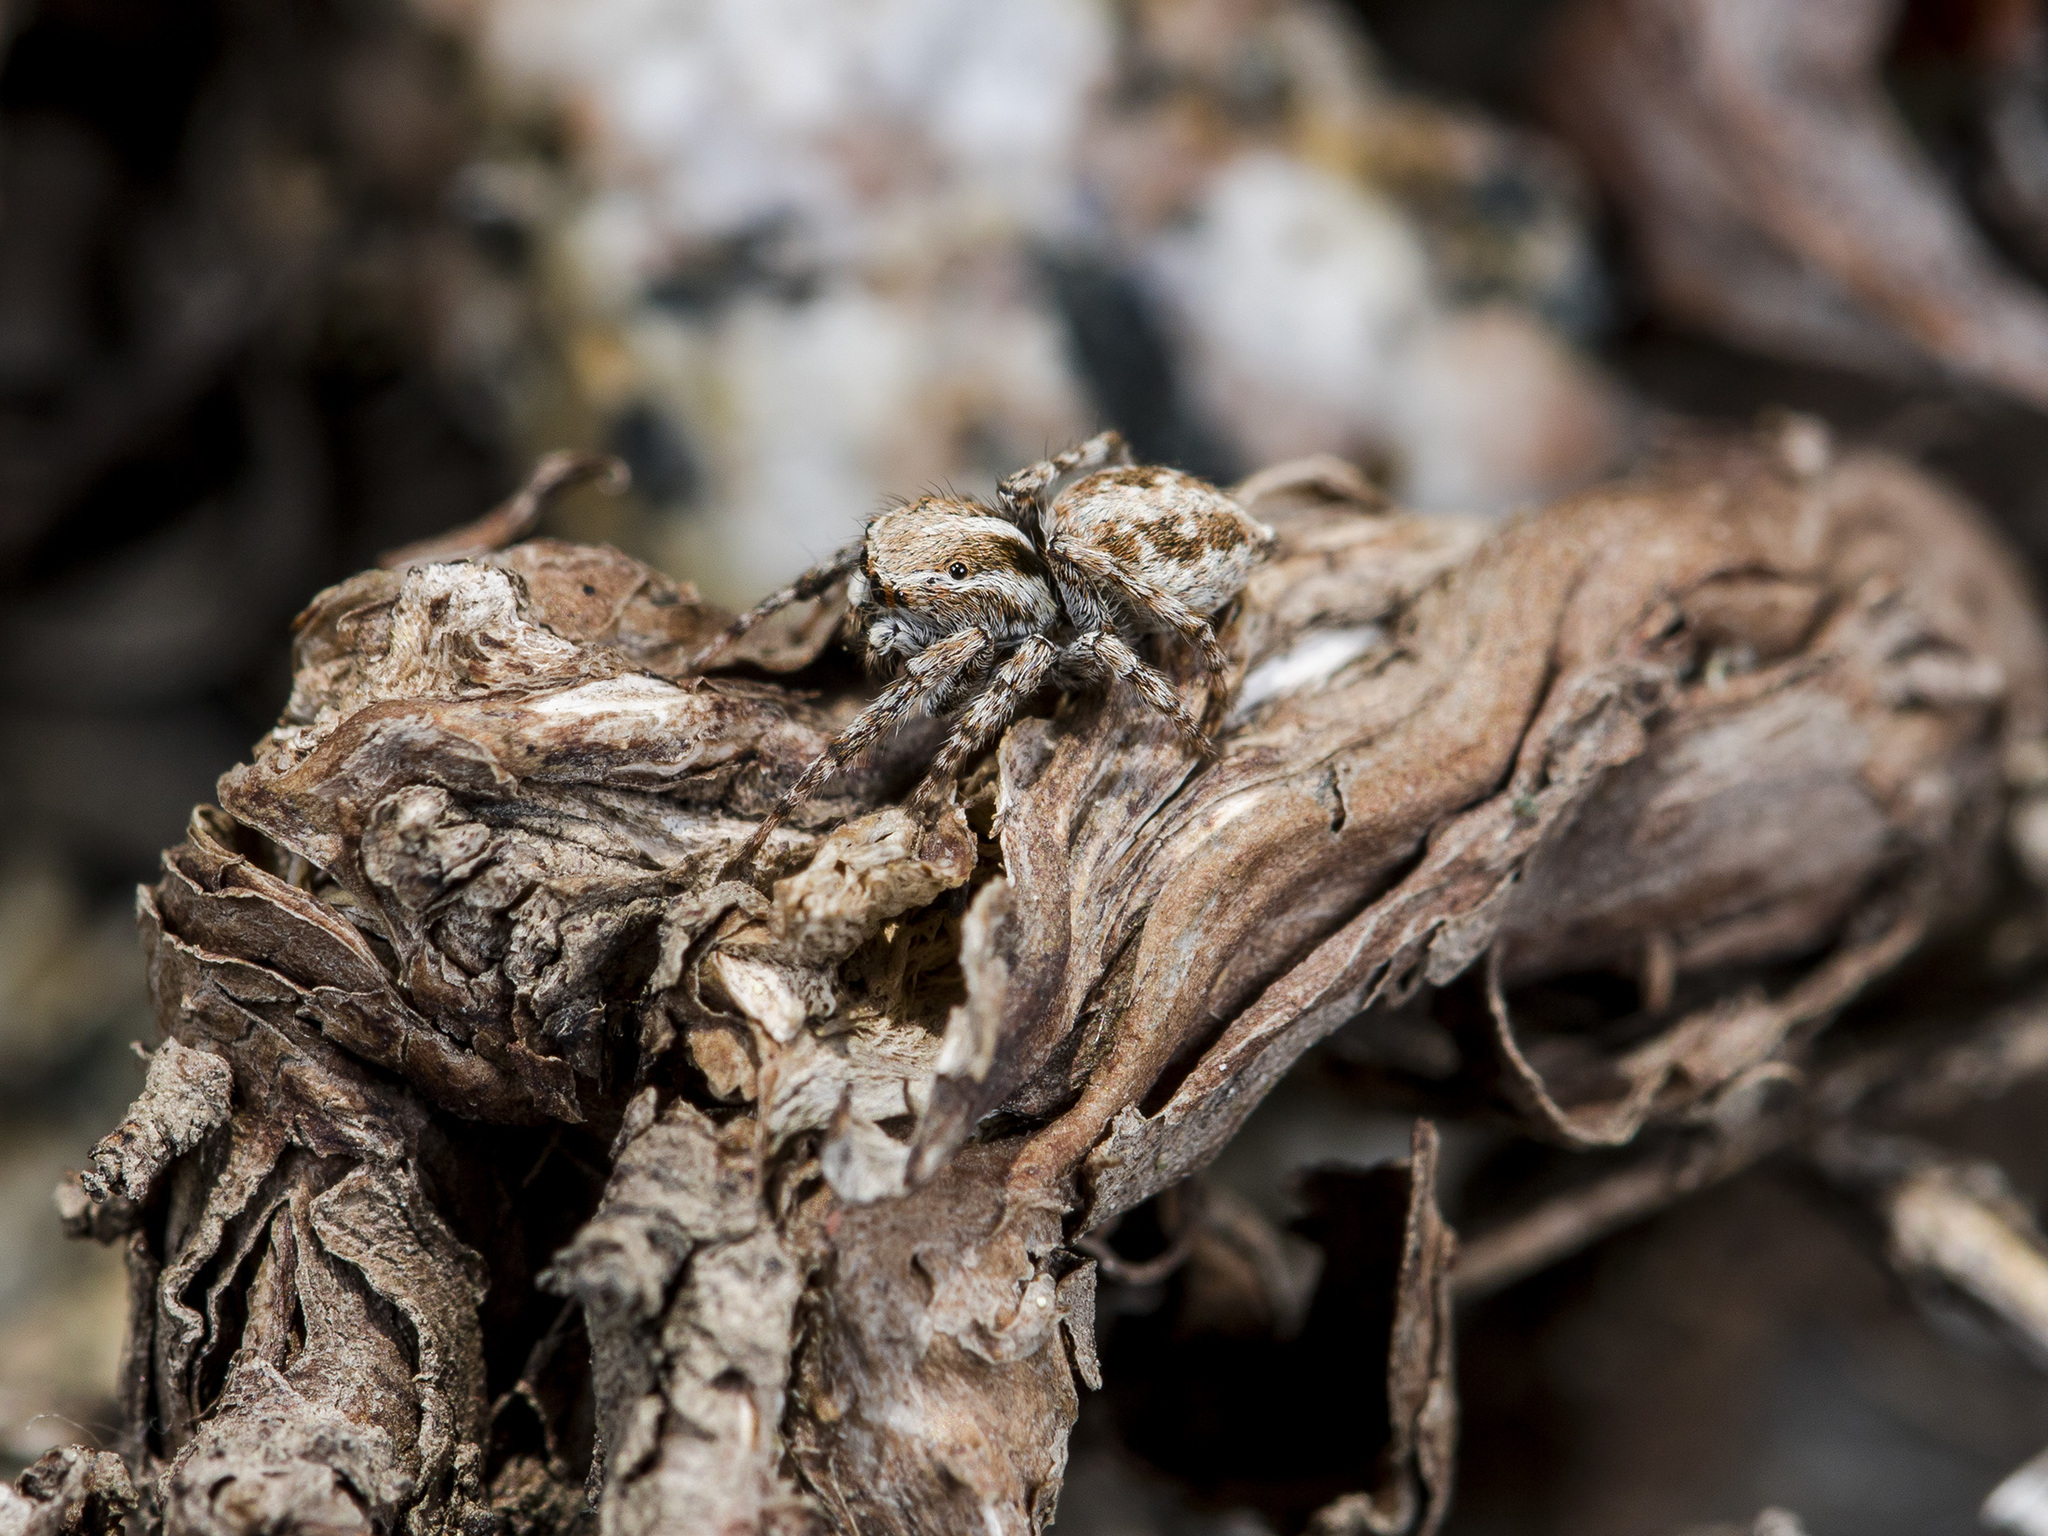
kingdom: Animalia
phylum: Arthropoda
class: Arachnida
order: Araneae
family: Salticidae
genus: Attulus
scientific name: Attulus avocator
